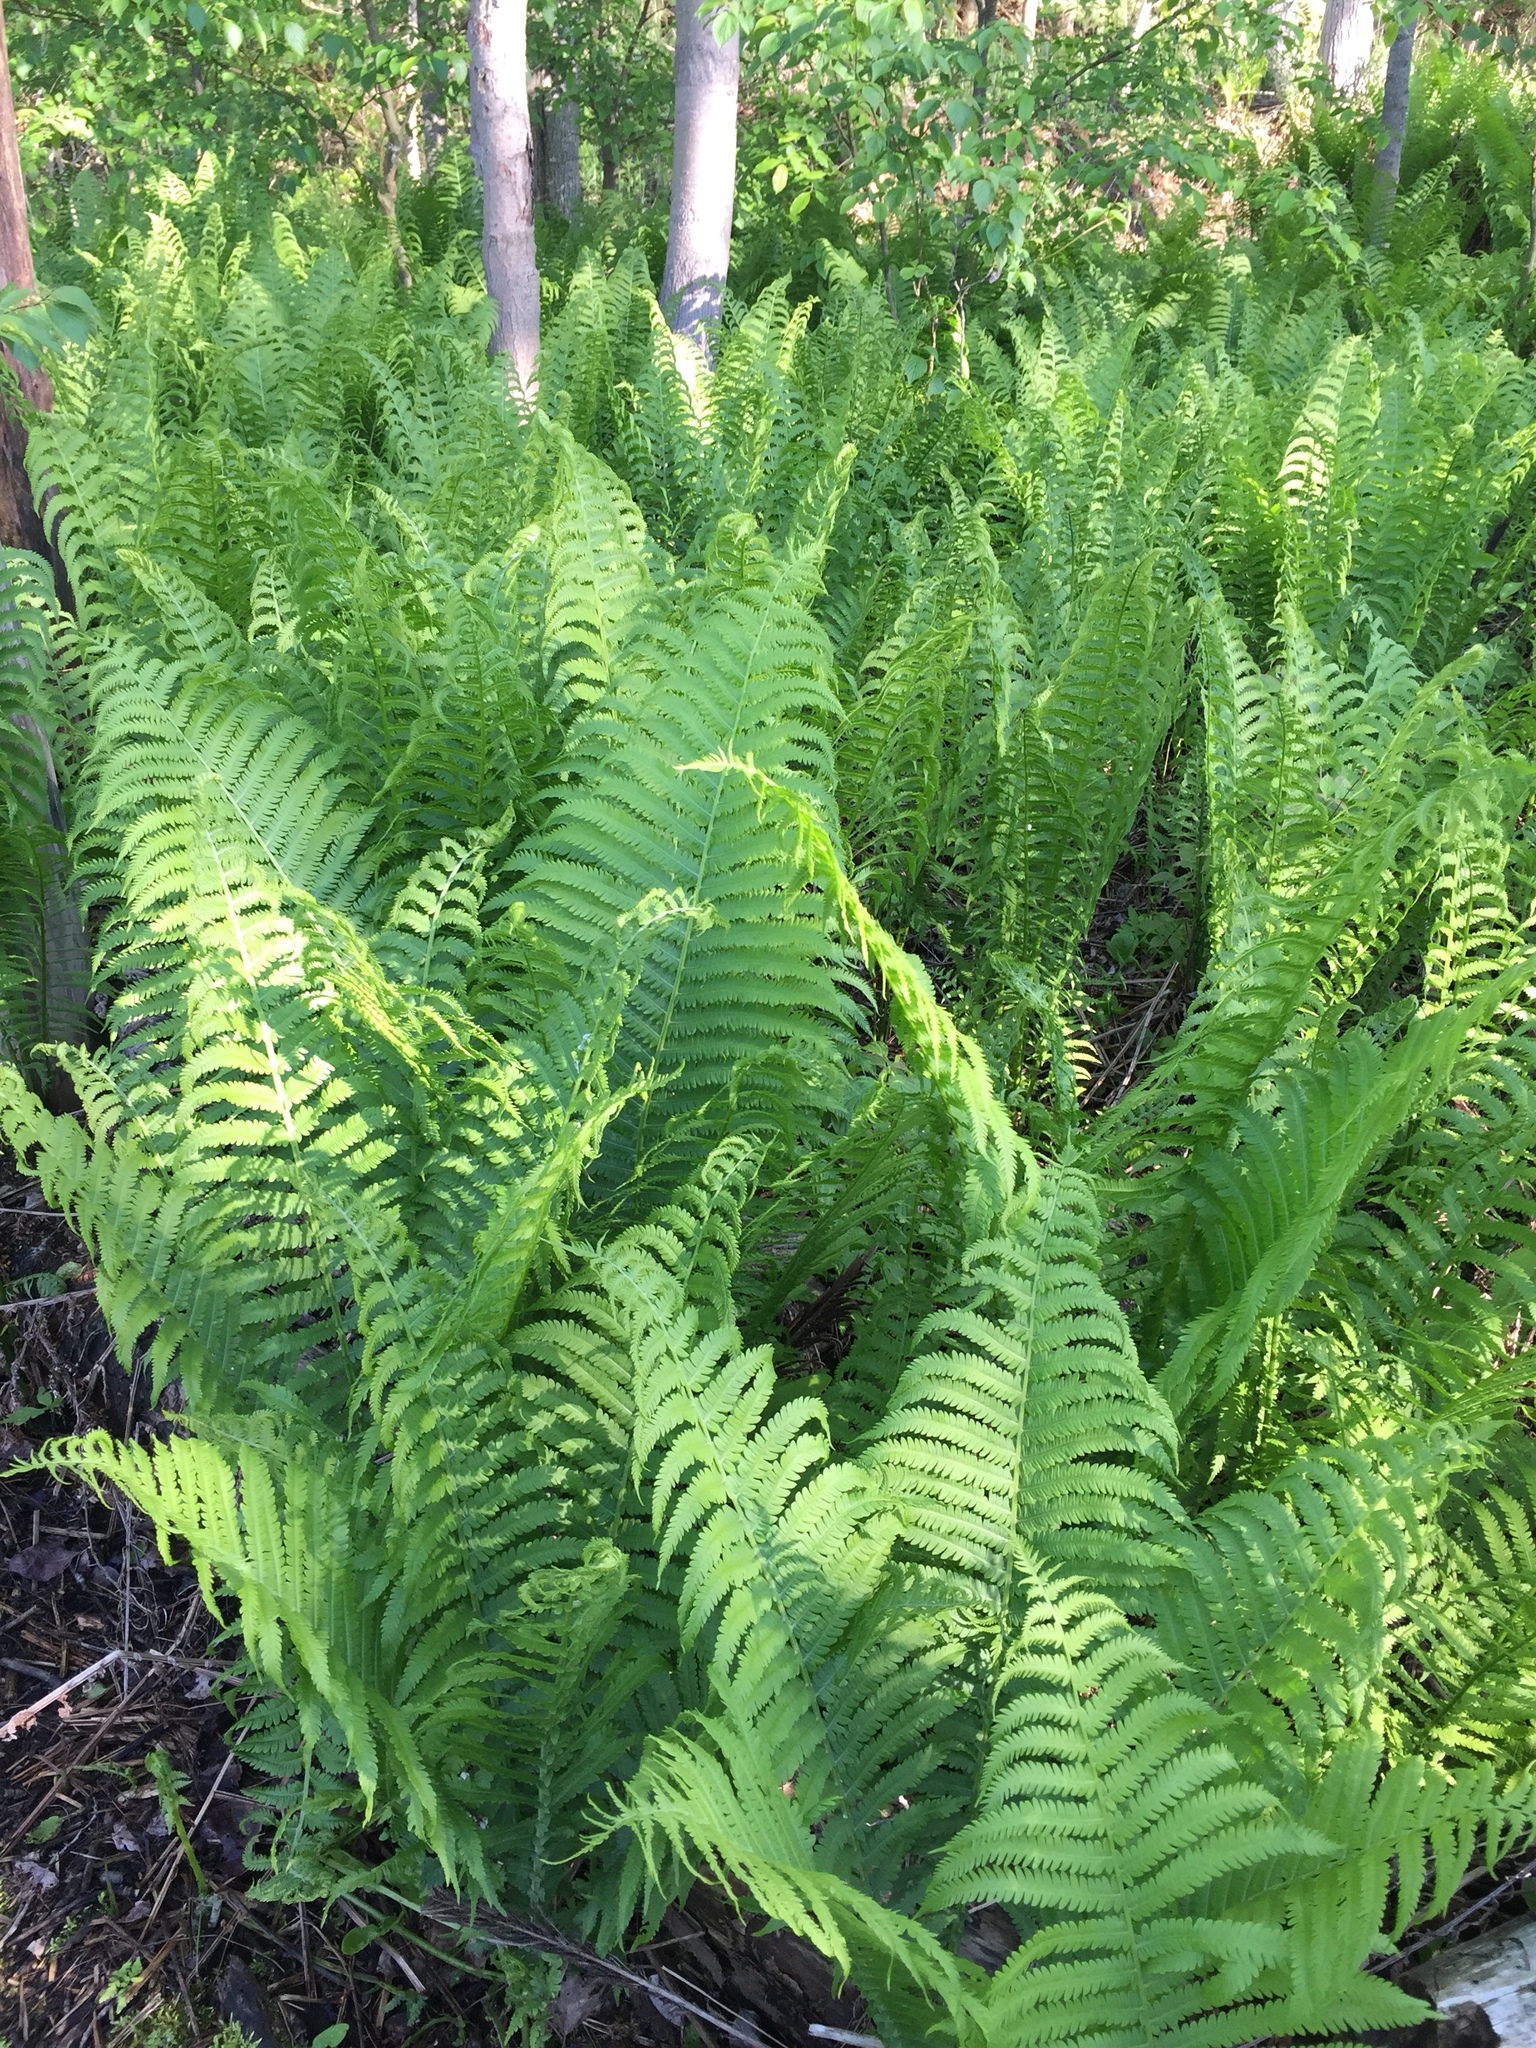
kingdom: Plantae
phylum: Tracheophyta
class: Polypodiopsida
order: Polypodiales
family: Onocleaceae
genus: Matteuccia
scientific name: Matteuccia struthiopteris
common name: Ostrich fern
